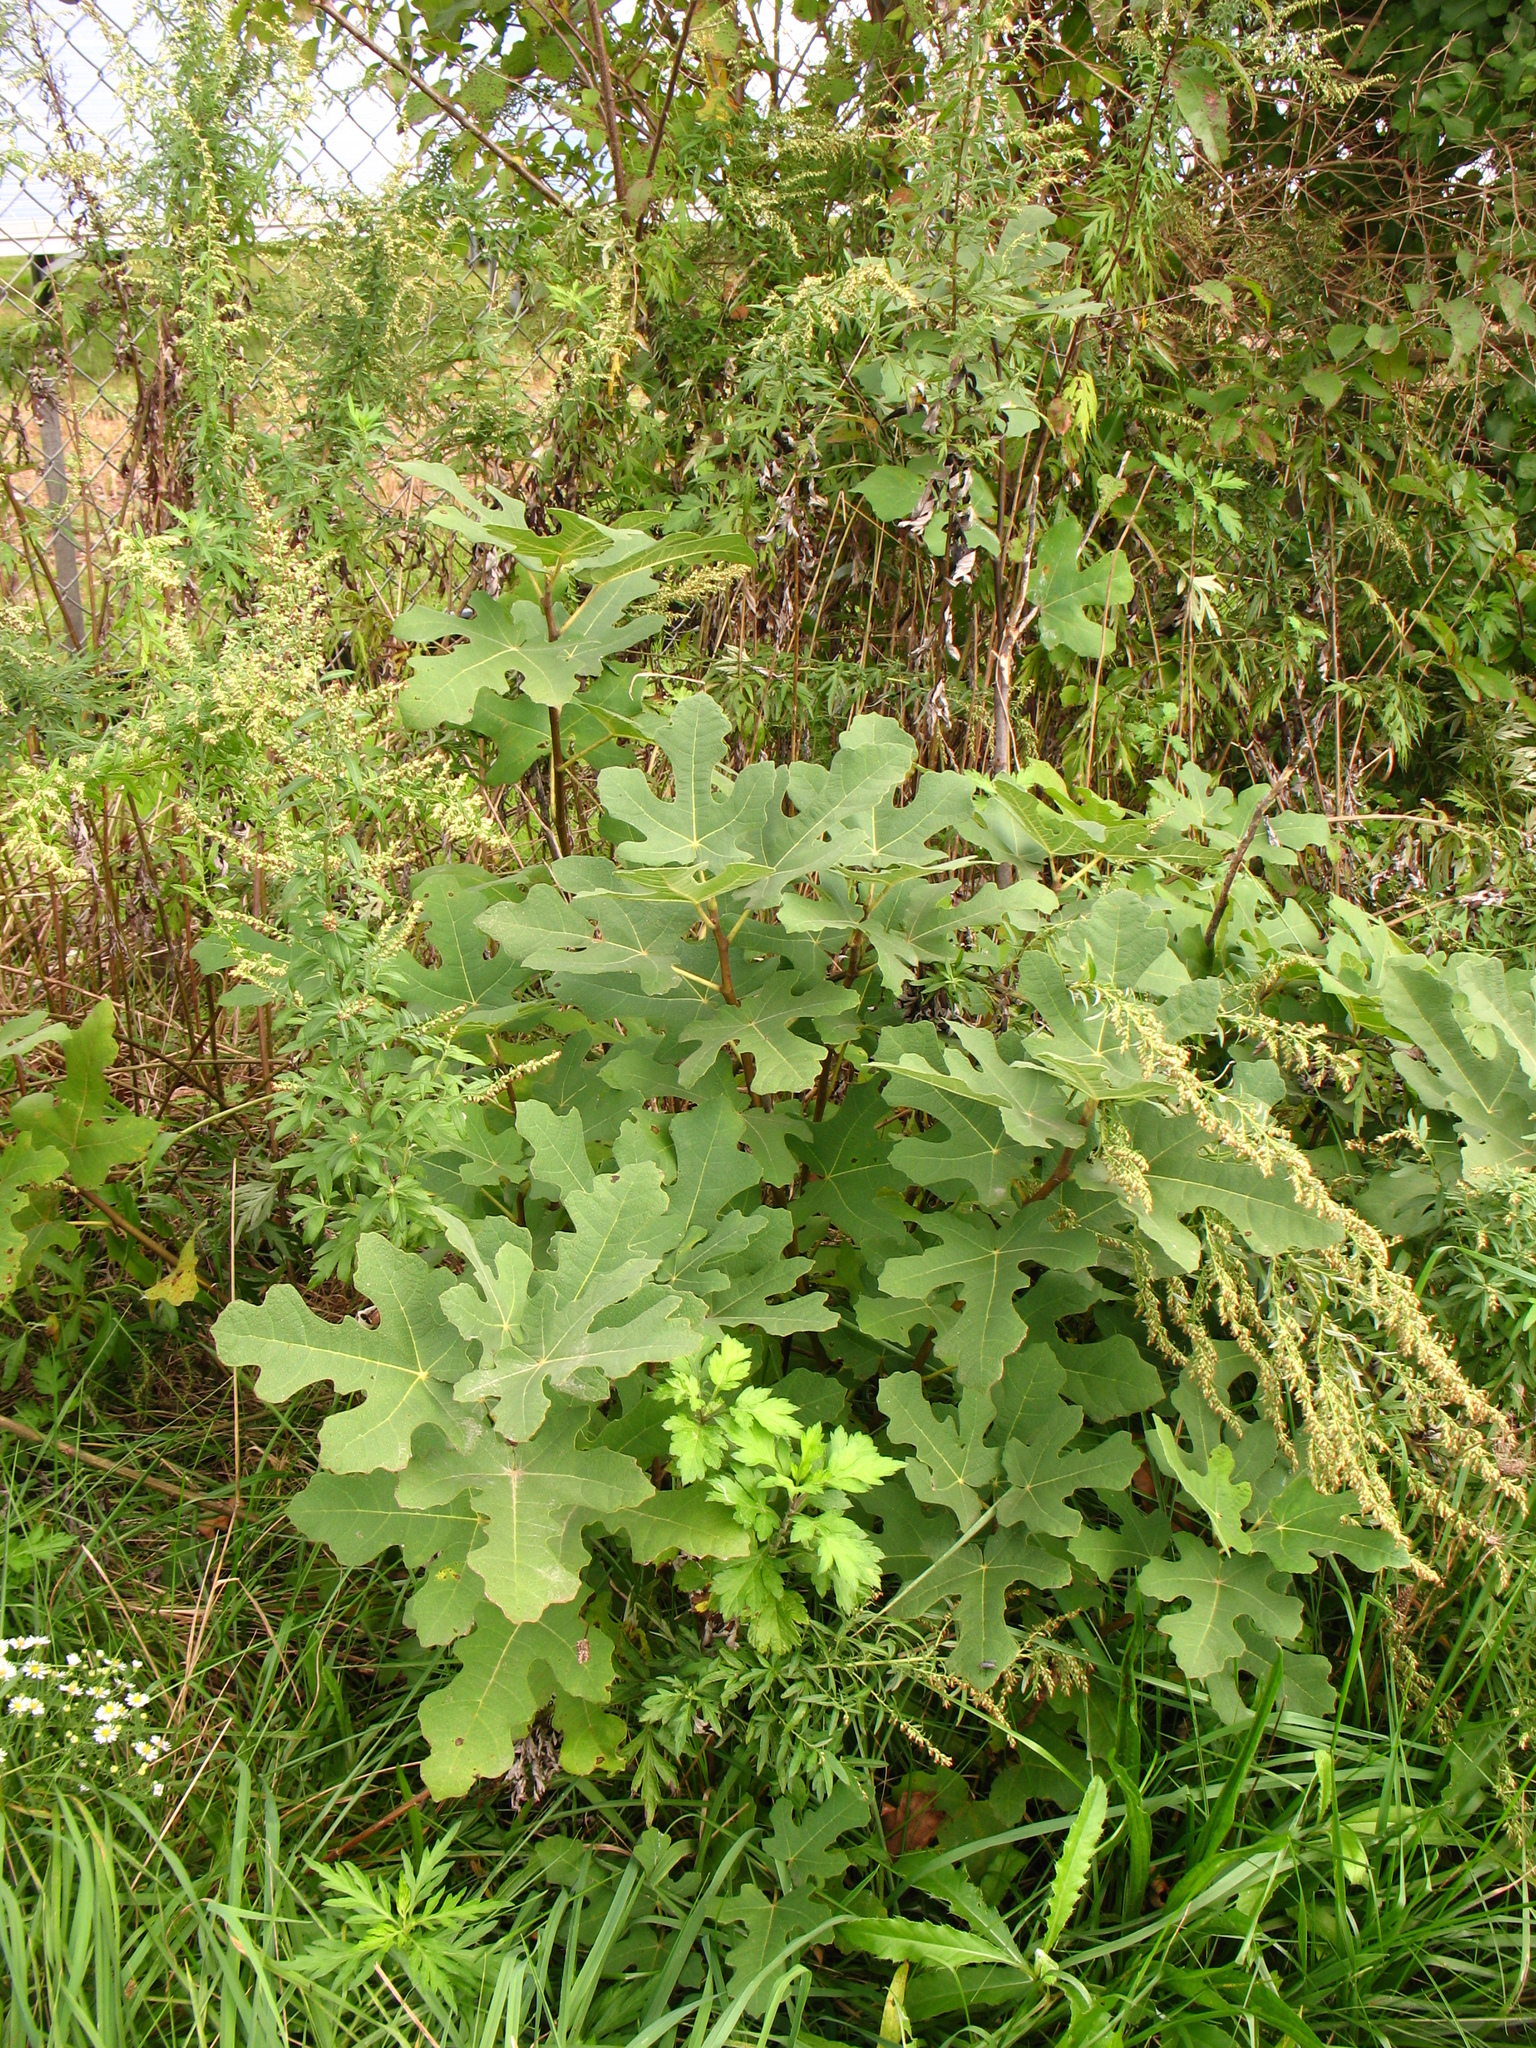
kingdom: Plantae
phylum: Tracheophyta
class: Magnoliopsida
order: Rosales
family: Moraceae
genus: Ficus
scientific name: Ficus carica
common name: Fig
